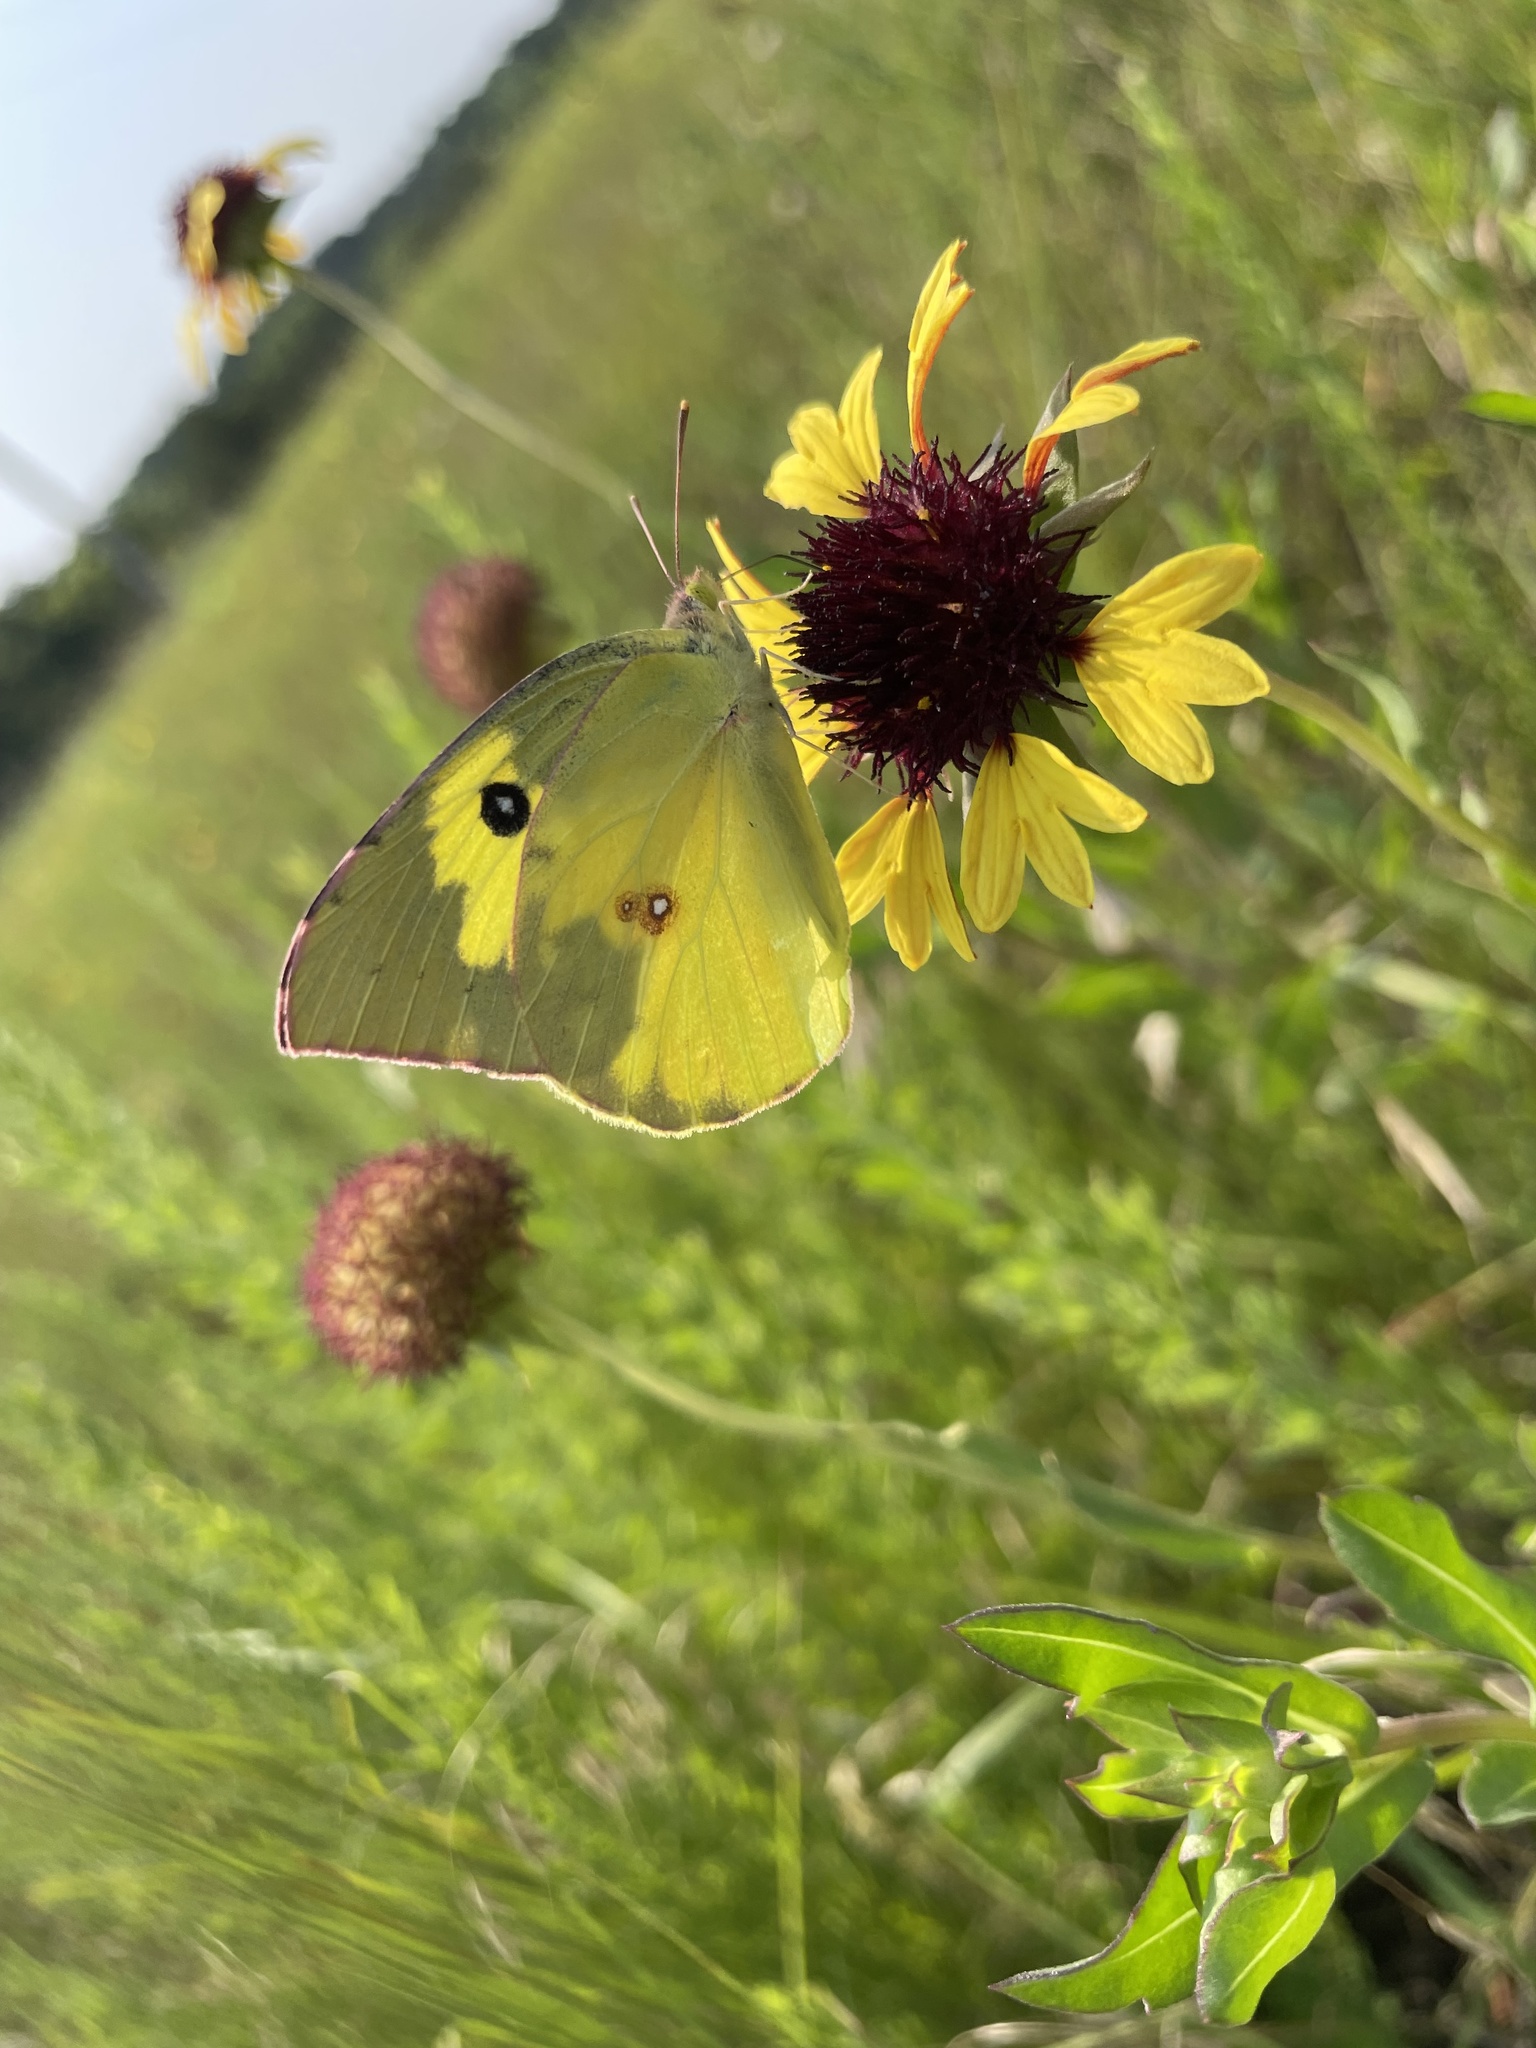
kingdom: Animalia
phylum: Arthropoda
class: Insecta
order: Lepidoptera
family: Pieridae
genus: Zerene
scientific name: Zerene cesonia
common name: Southern dogface
